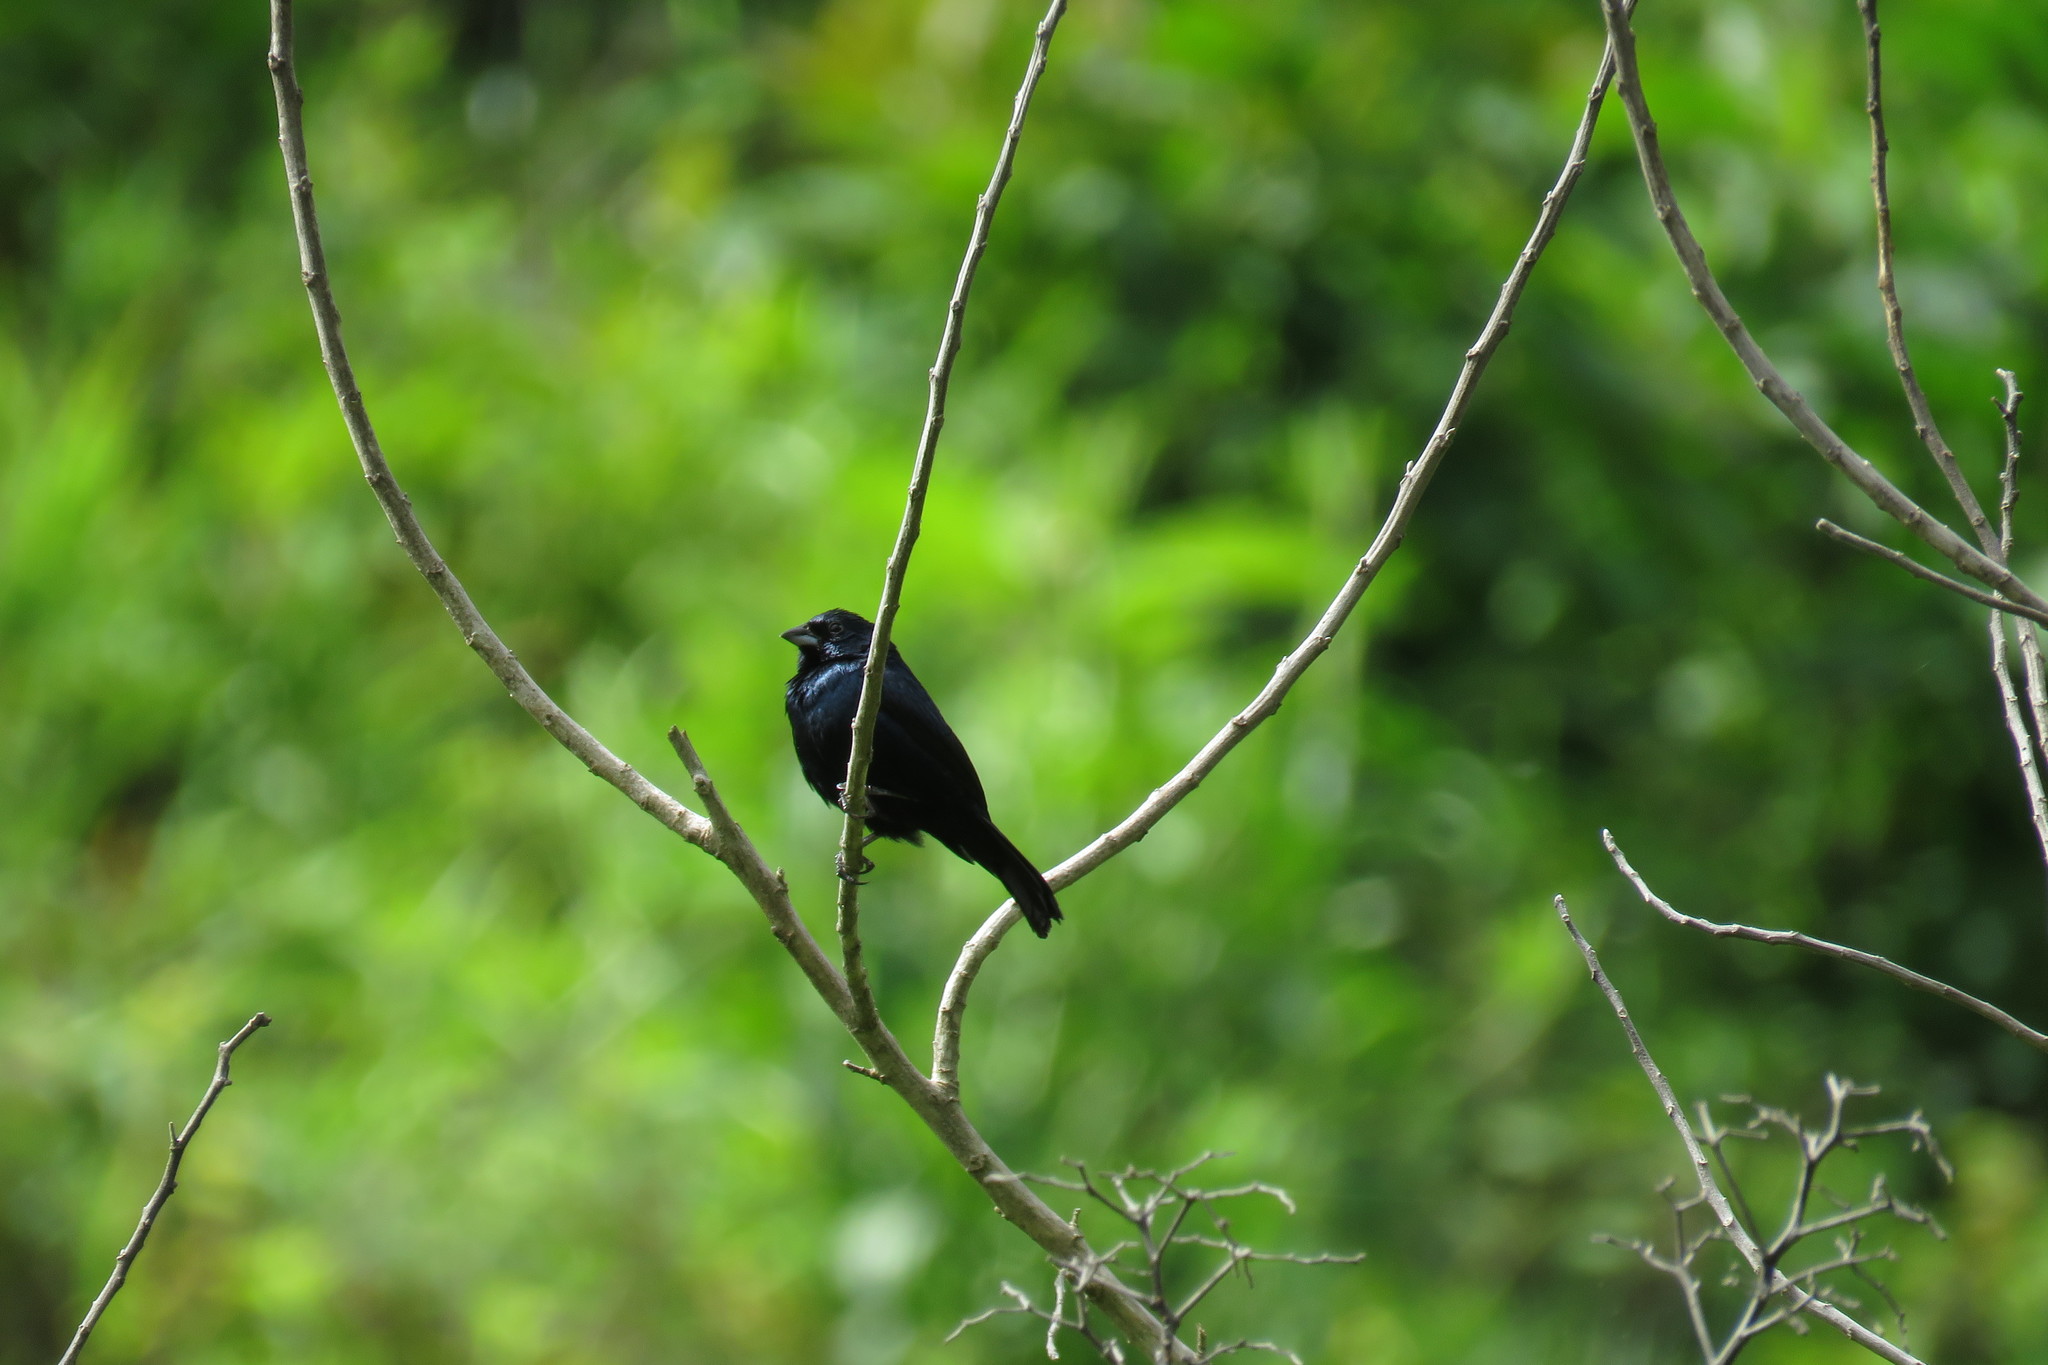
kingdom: Animalia
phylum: Chordata
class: Aves
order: Passeriformes
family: Thraupidae
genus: Volatinia
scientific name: Volatinia jacarina
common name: Blue-black grassquit
